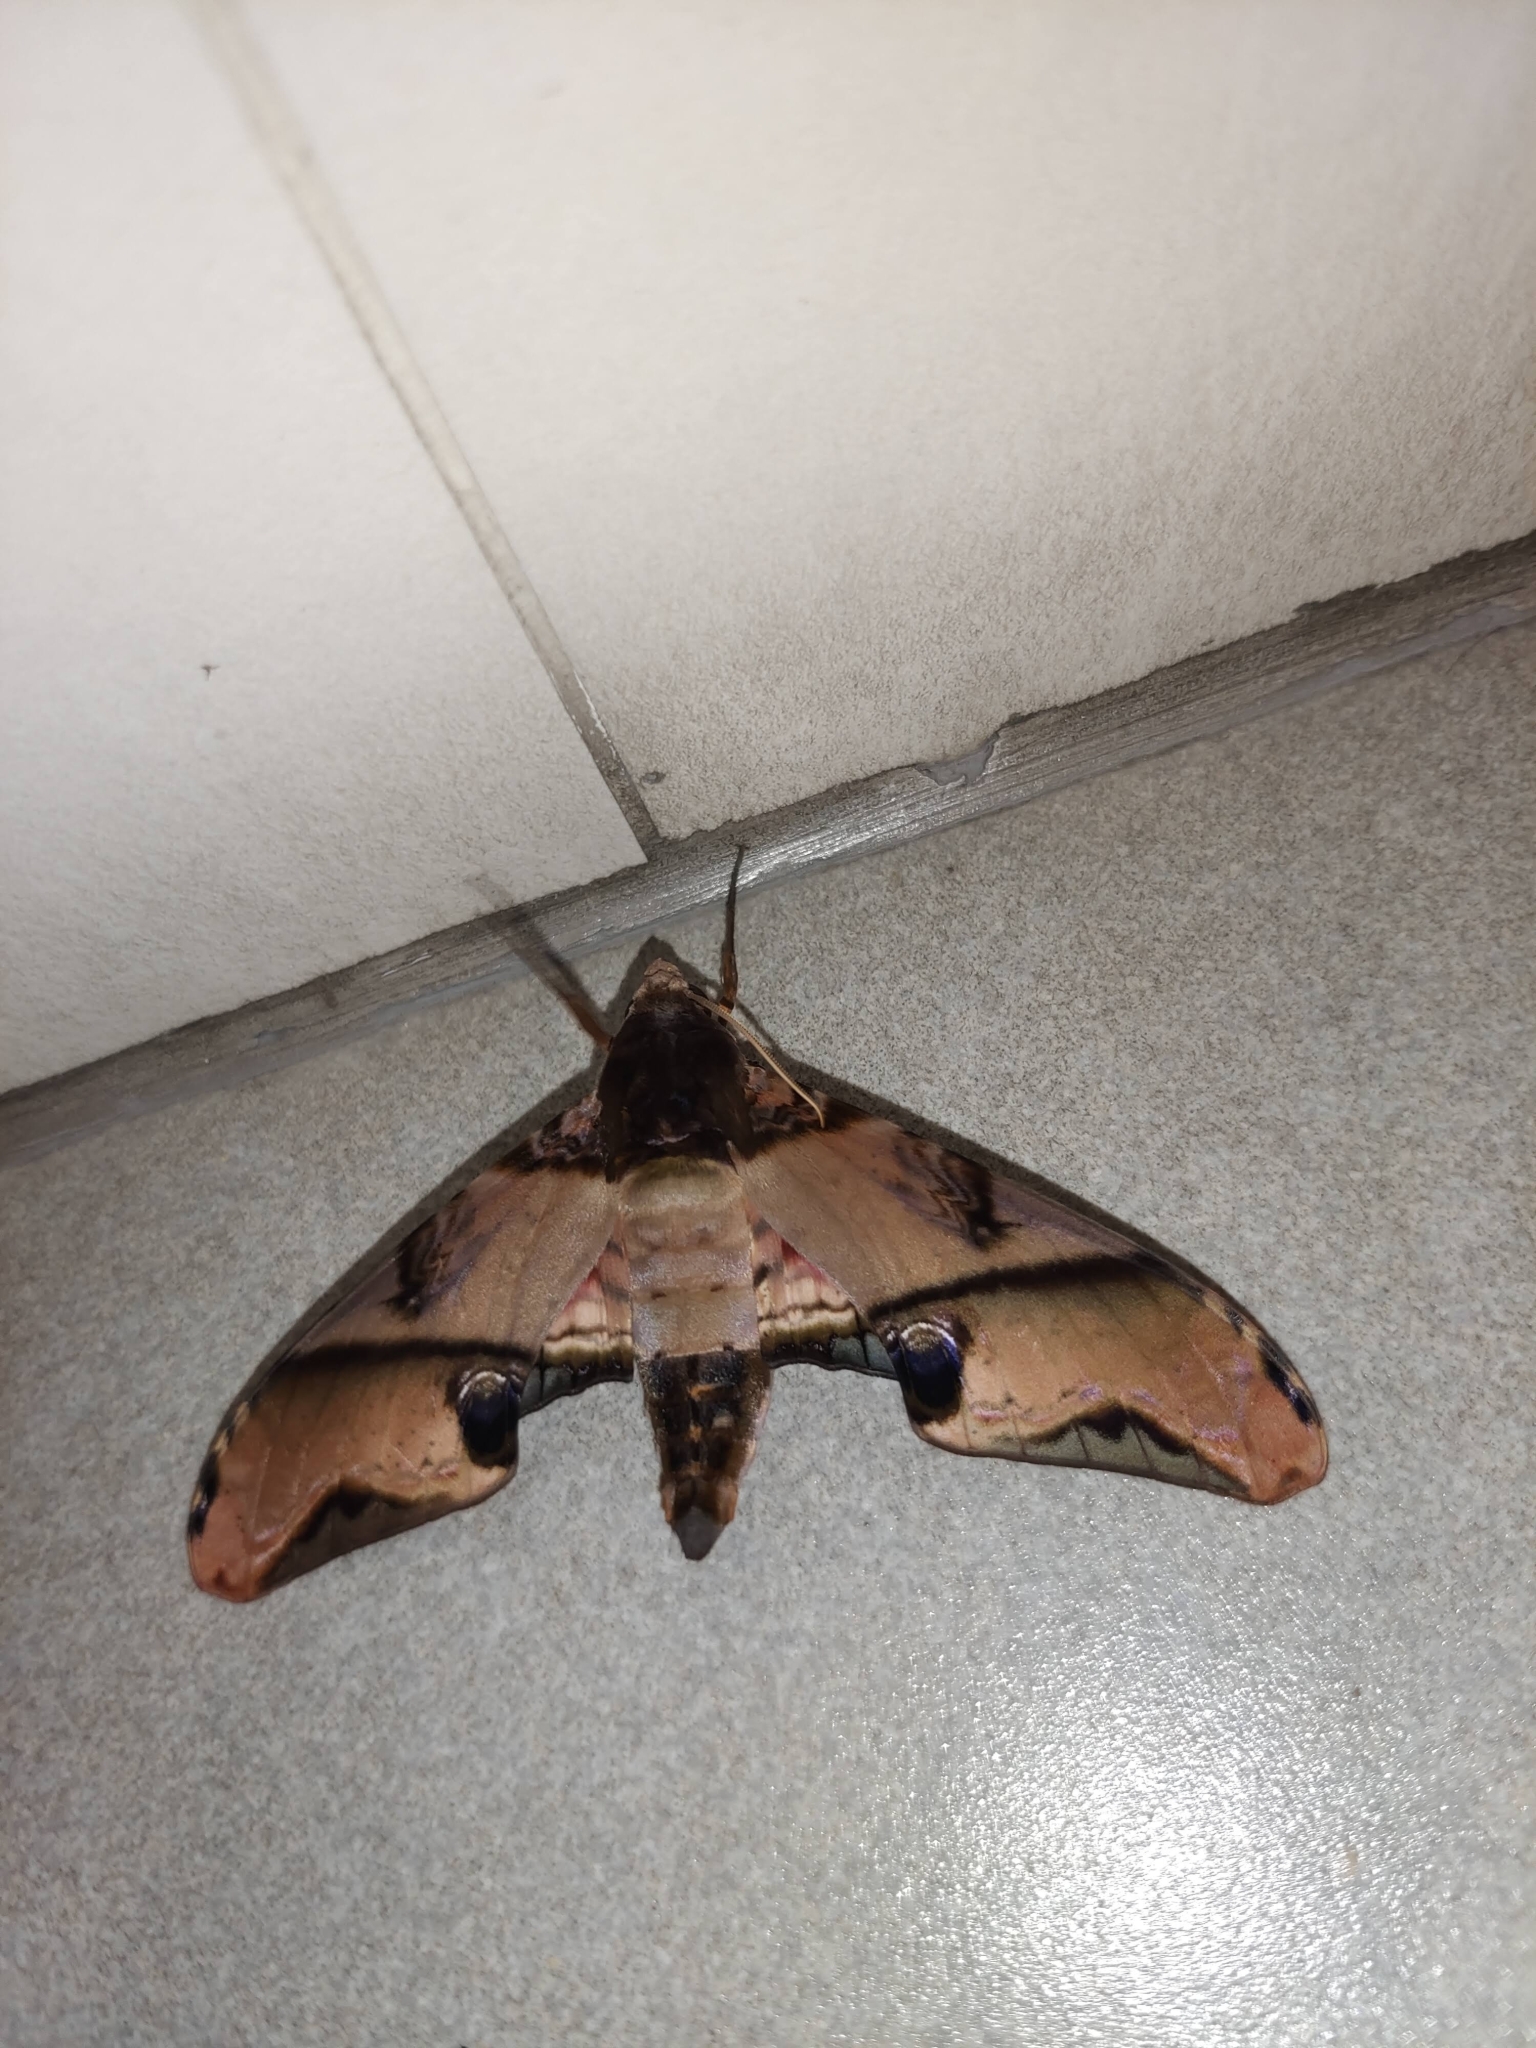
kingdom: Animalia
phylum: Arthropoda
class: Insecta
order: Lepidoptera
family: Sphingidae
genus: Amplypterus
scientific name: Amplypterus panopus
